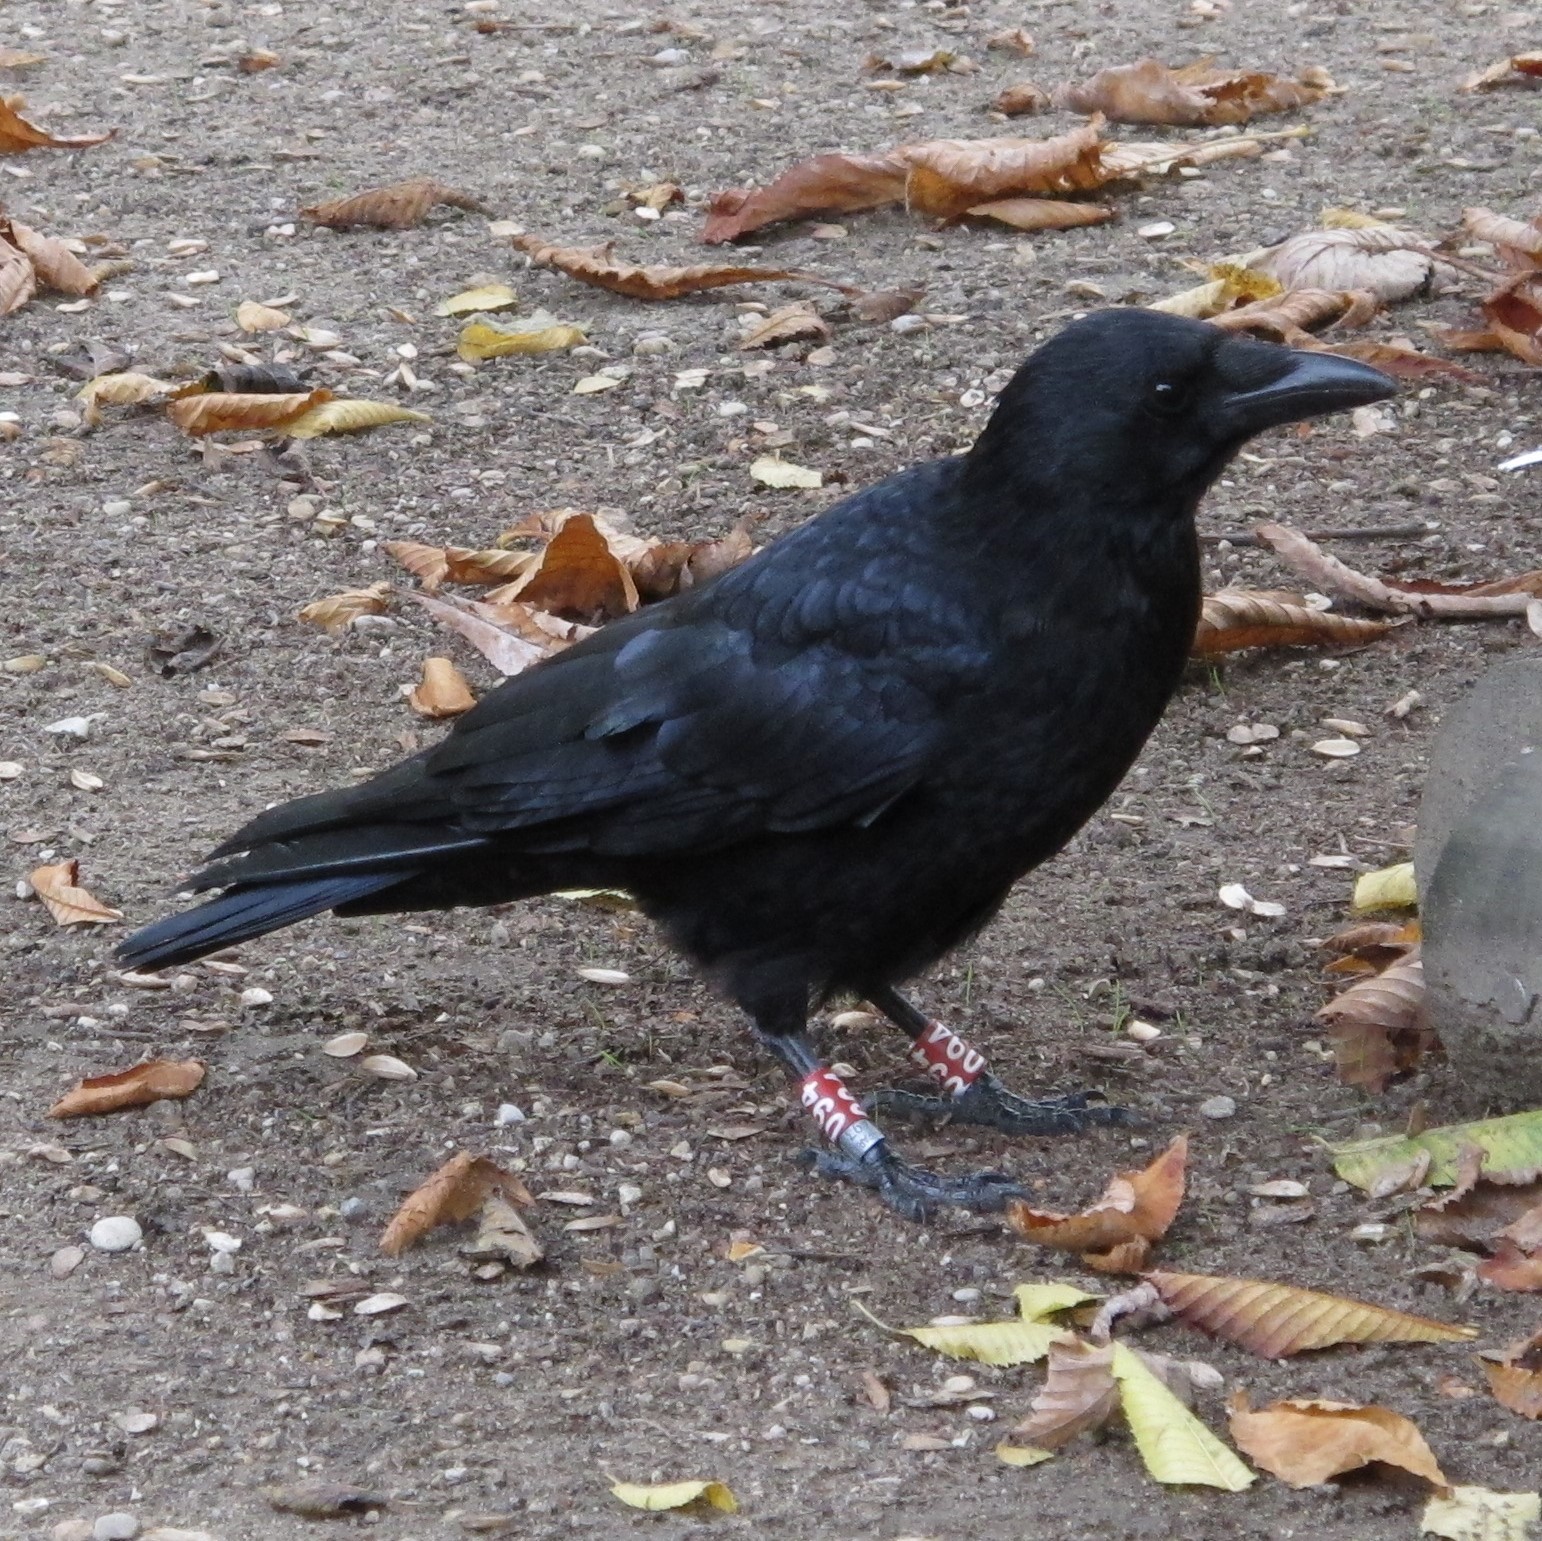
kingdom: Animalia
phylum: Chordata
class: Aves
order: Passeriformes
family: Corvidae
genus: Corvus
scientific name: Corvus corone
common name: Carrion crow
